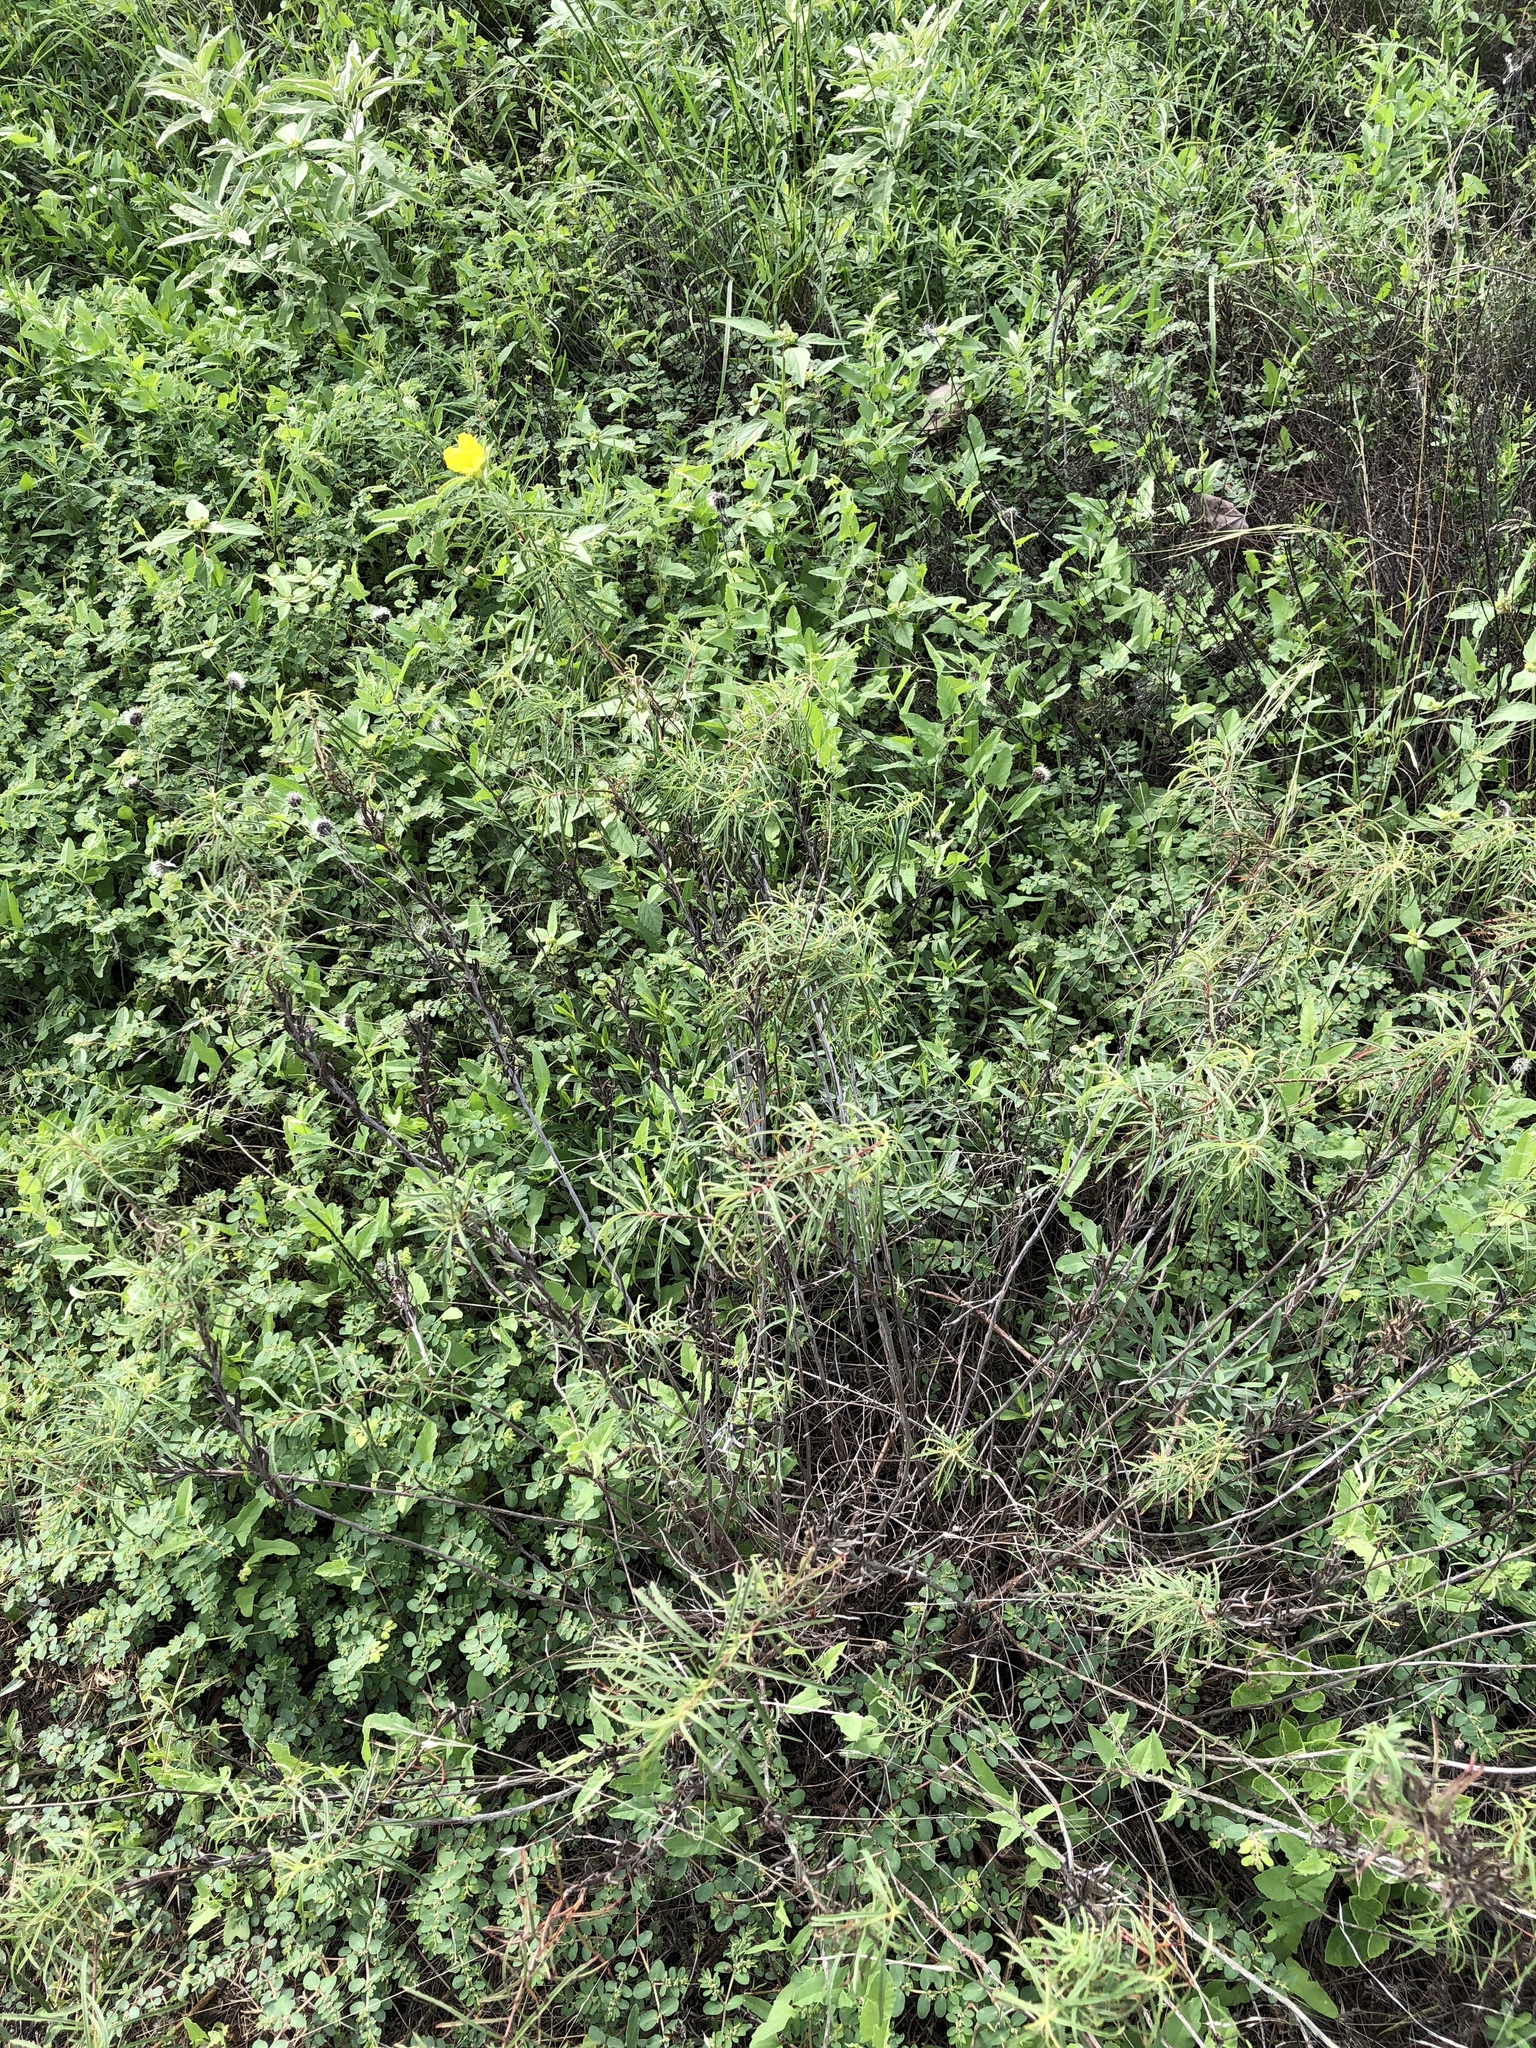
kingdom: Plantae
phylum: Tracheophyta
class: Magnoliopsida
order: Myrtales
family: Onagraceae
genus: Oenothera
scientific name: Oenothera
